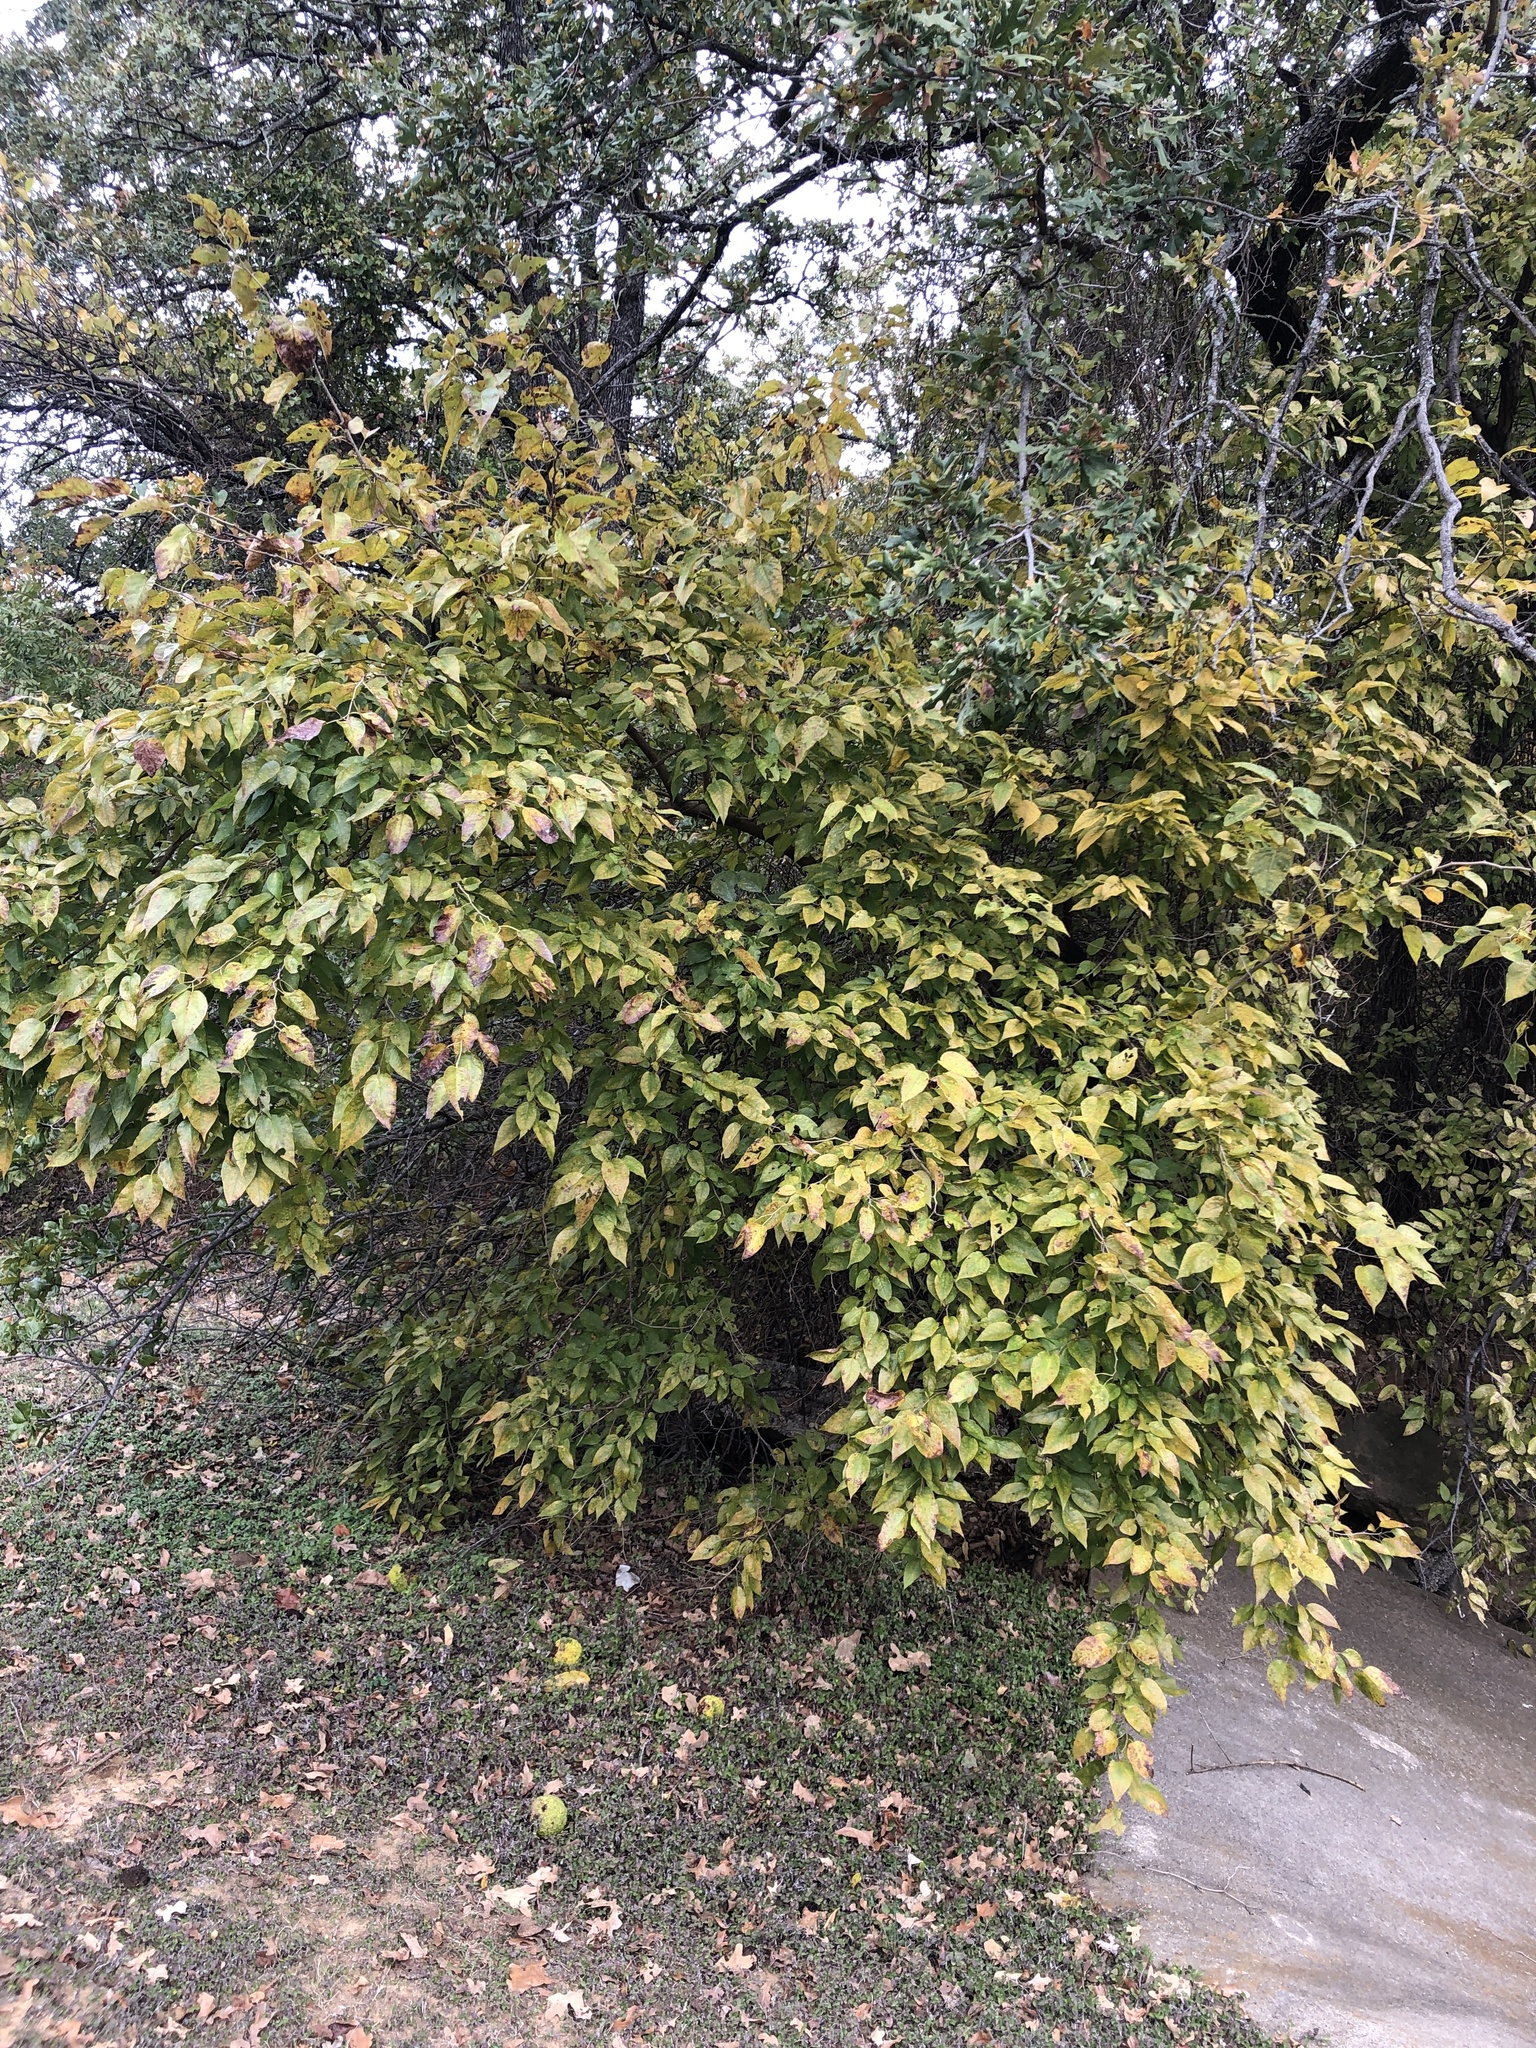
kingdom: Plantae
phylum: Tracheophyta
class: Magnoliopsida
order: Rosales
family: Moraceae
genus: Maclura
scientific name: Maclura pomifera
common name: Osage-orange
